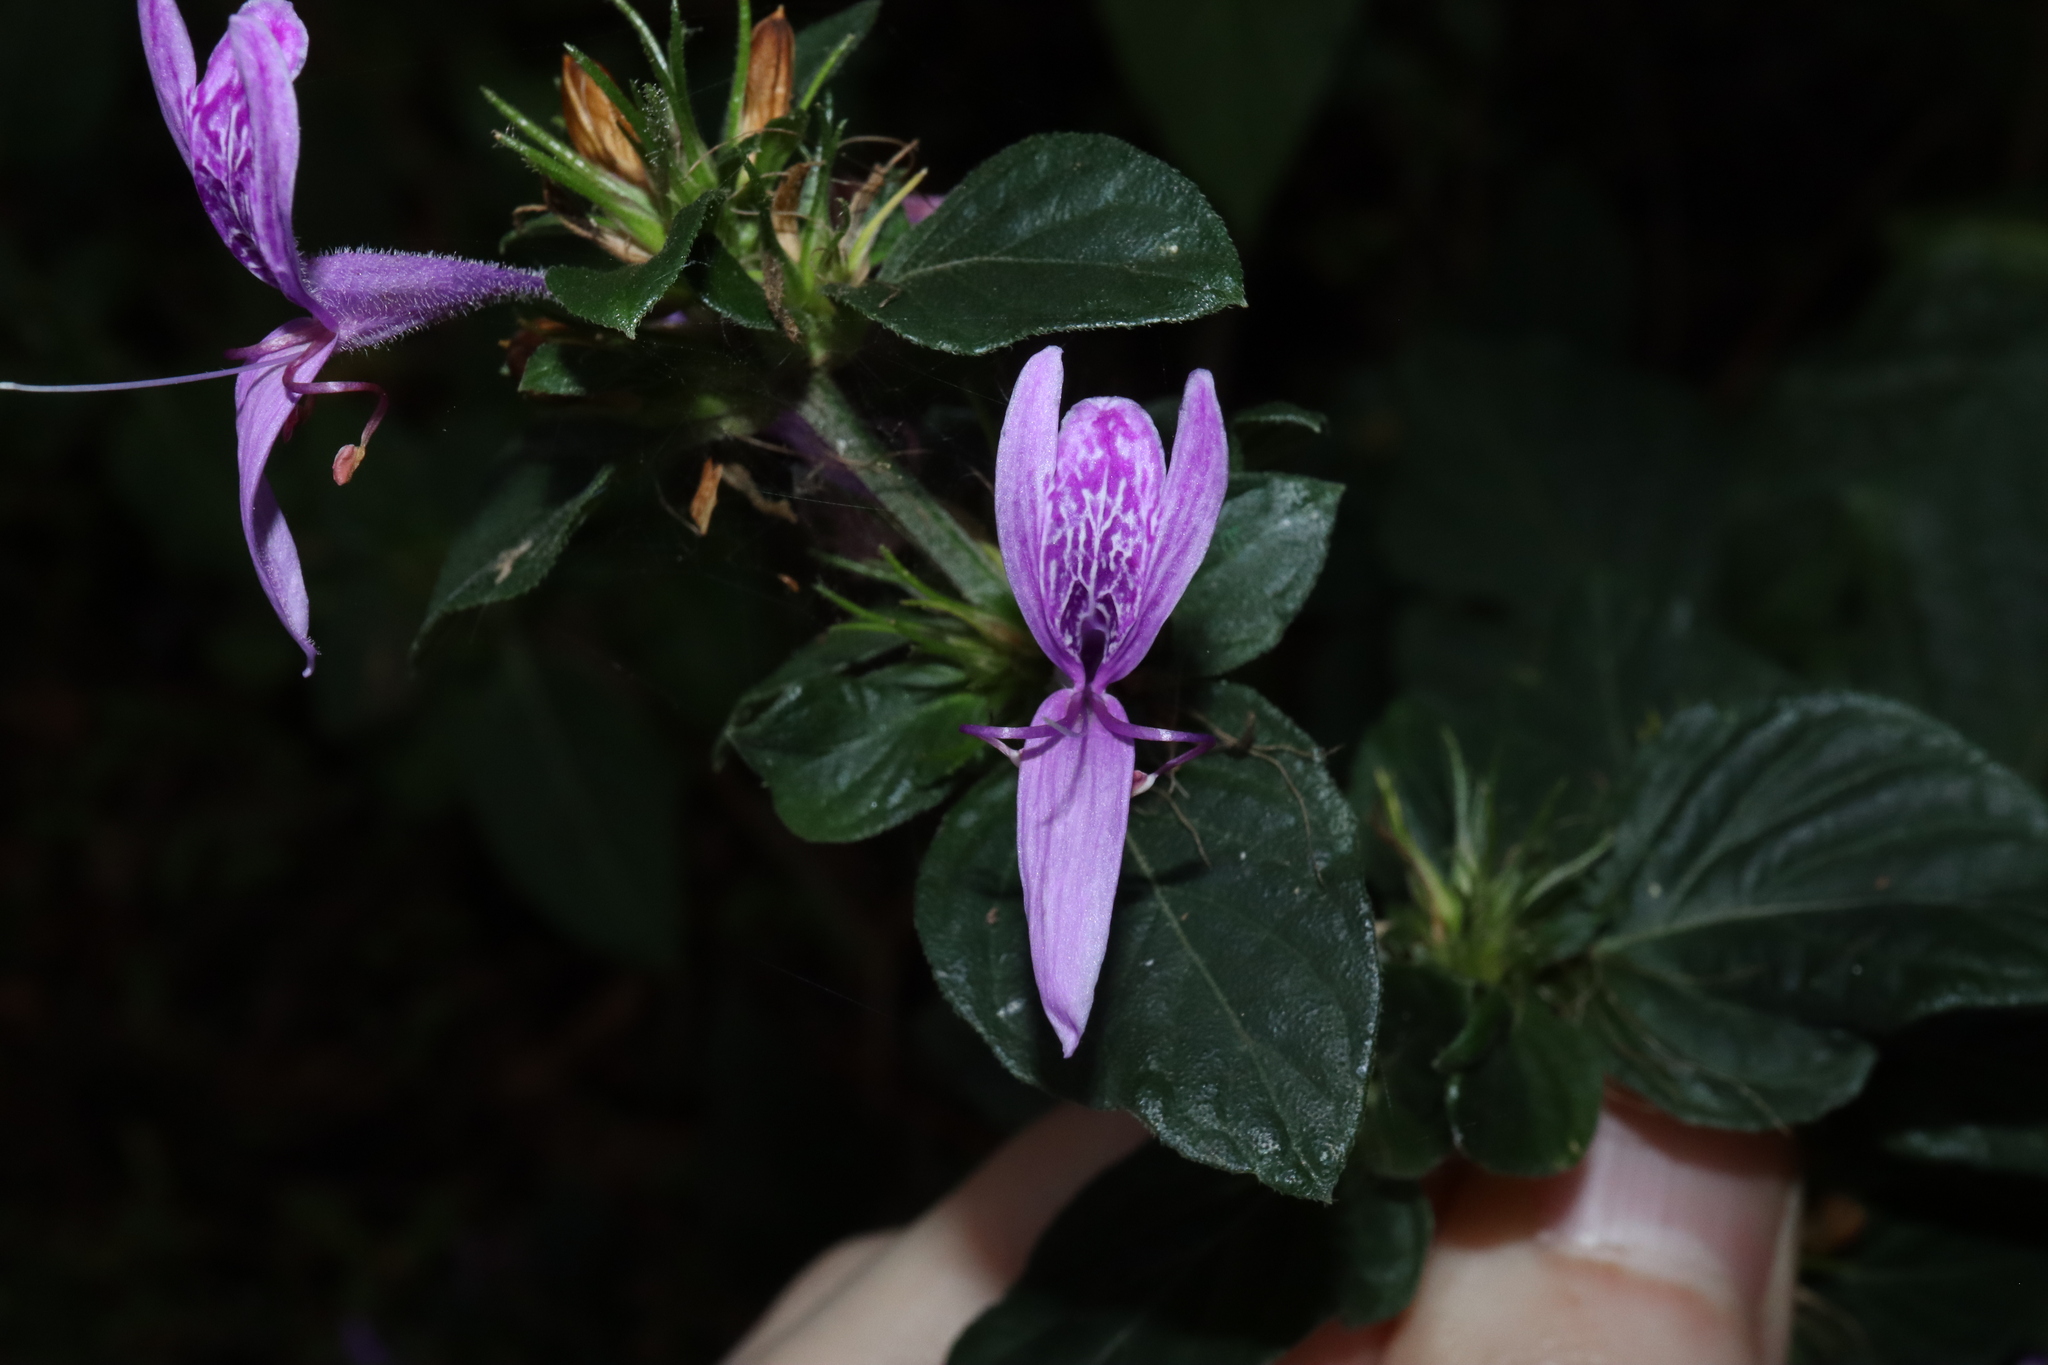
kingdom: Plantae
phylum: Tracheophyta
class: Magnoliopsida
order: Lamiales
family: Acanthaceae
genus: Hypoestes
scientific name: Hypoestes aristata
